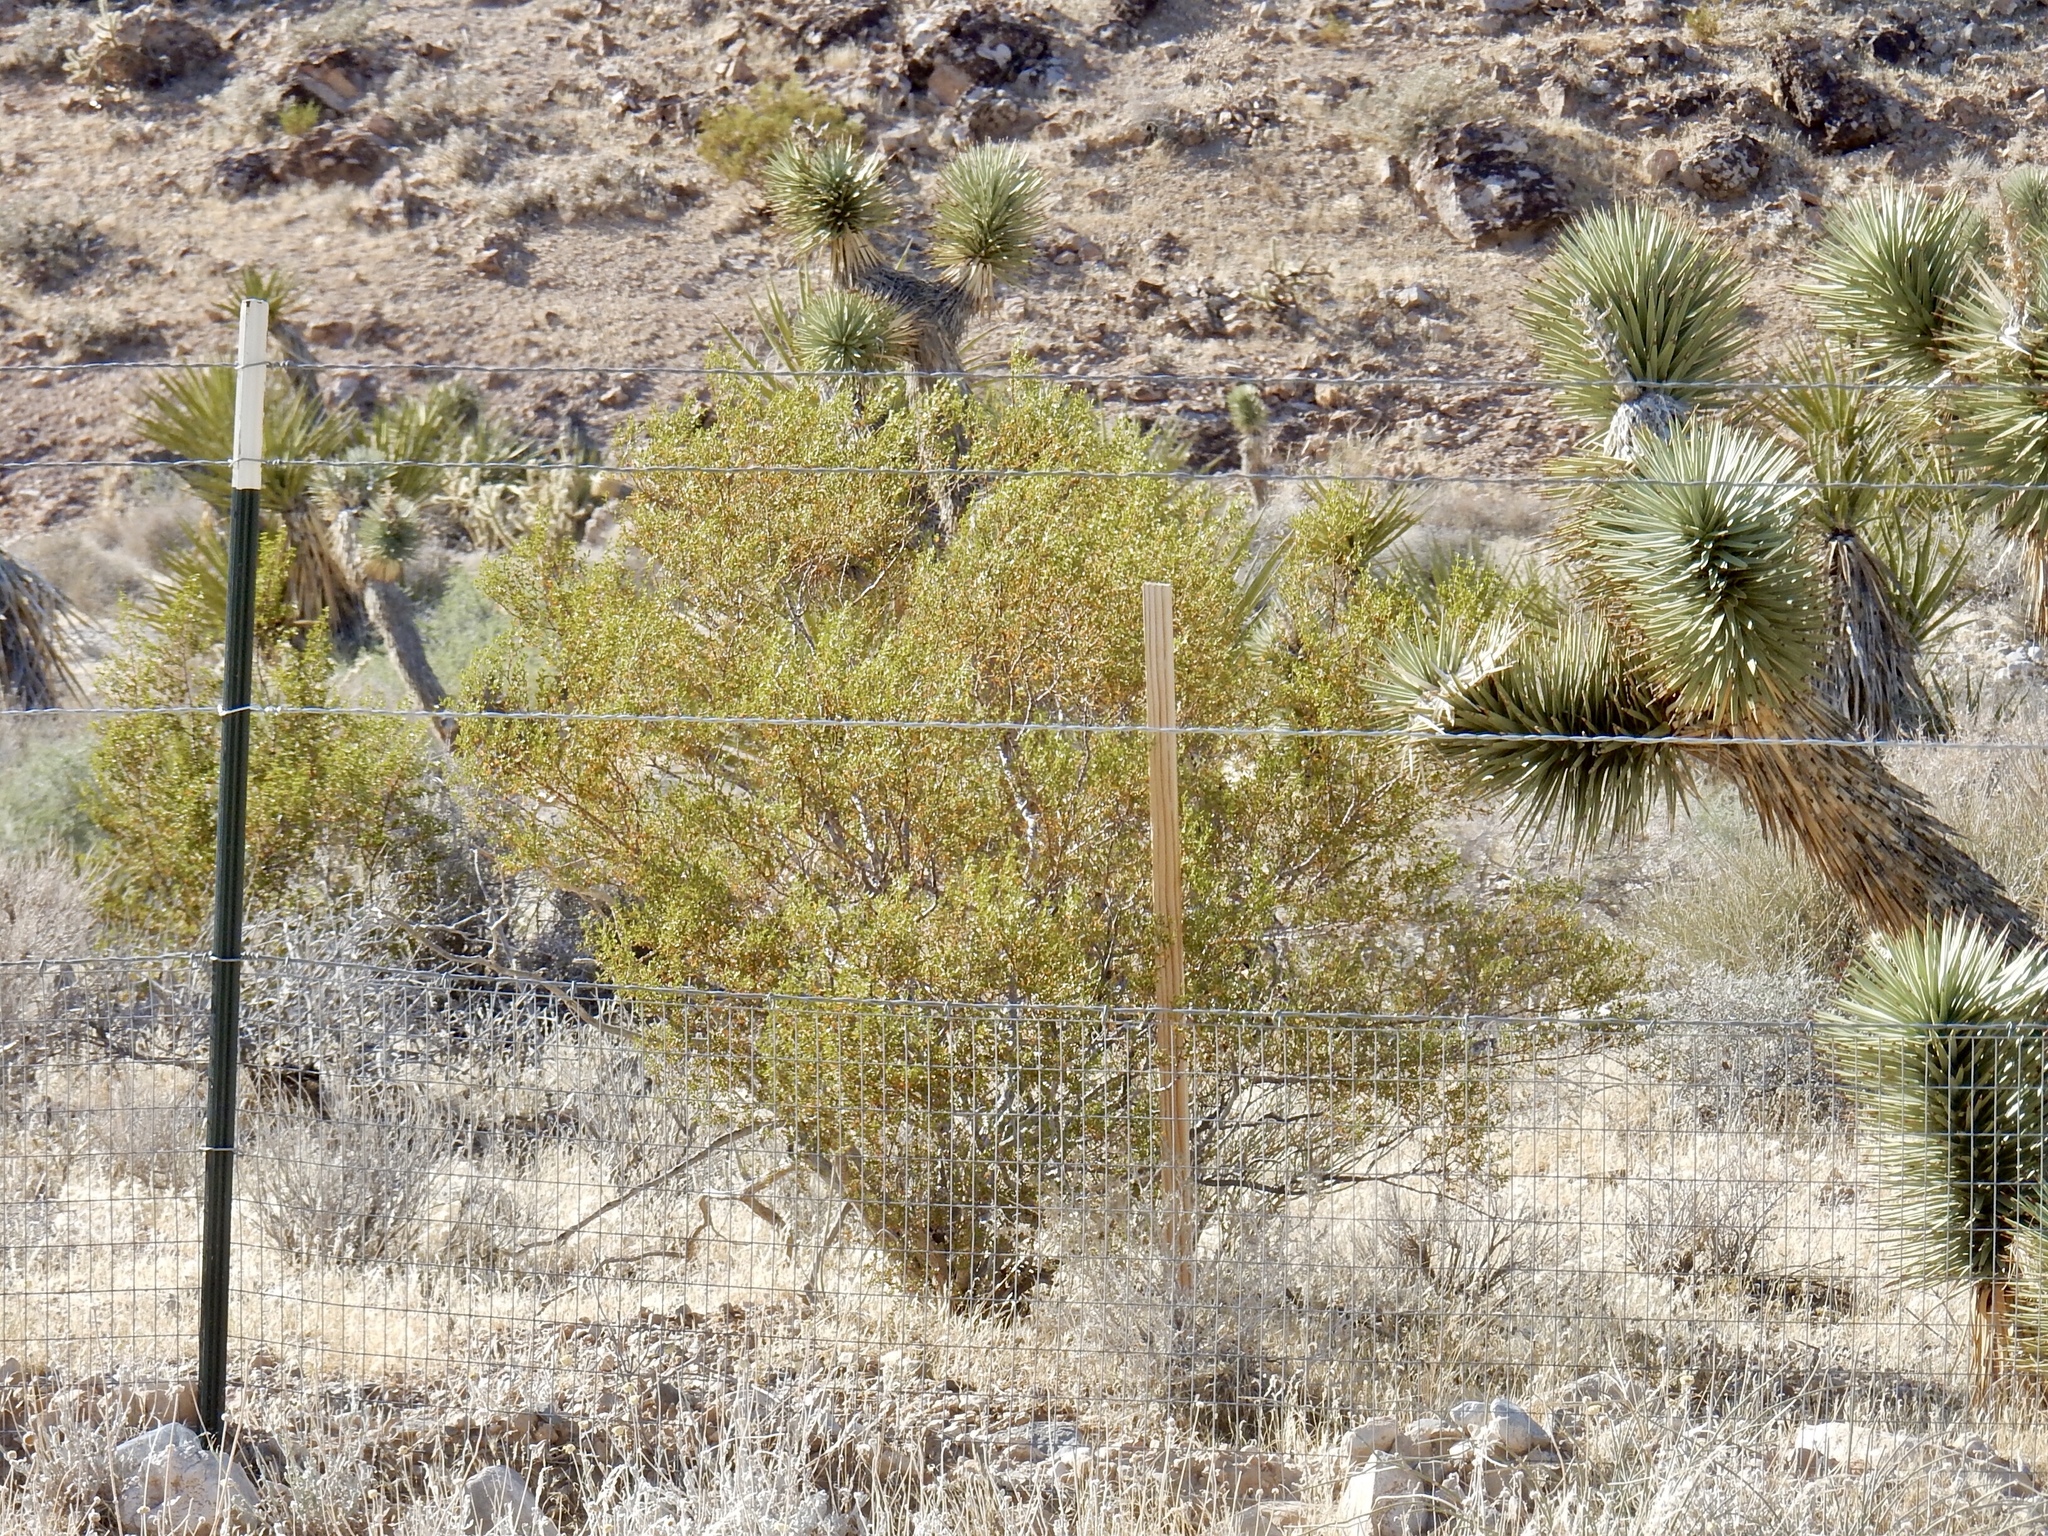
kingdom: Plantae
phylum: Tracheophyta
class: Magnoliopsida
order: Zygophyllales
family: Zygophyllaceae
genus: Larrea
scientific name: Larrea tridentata
